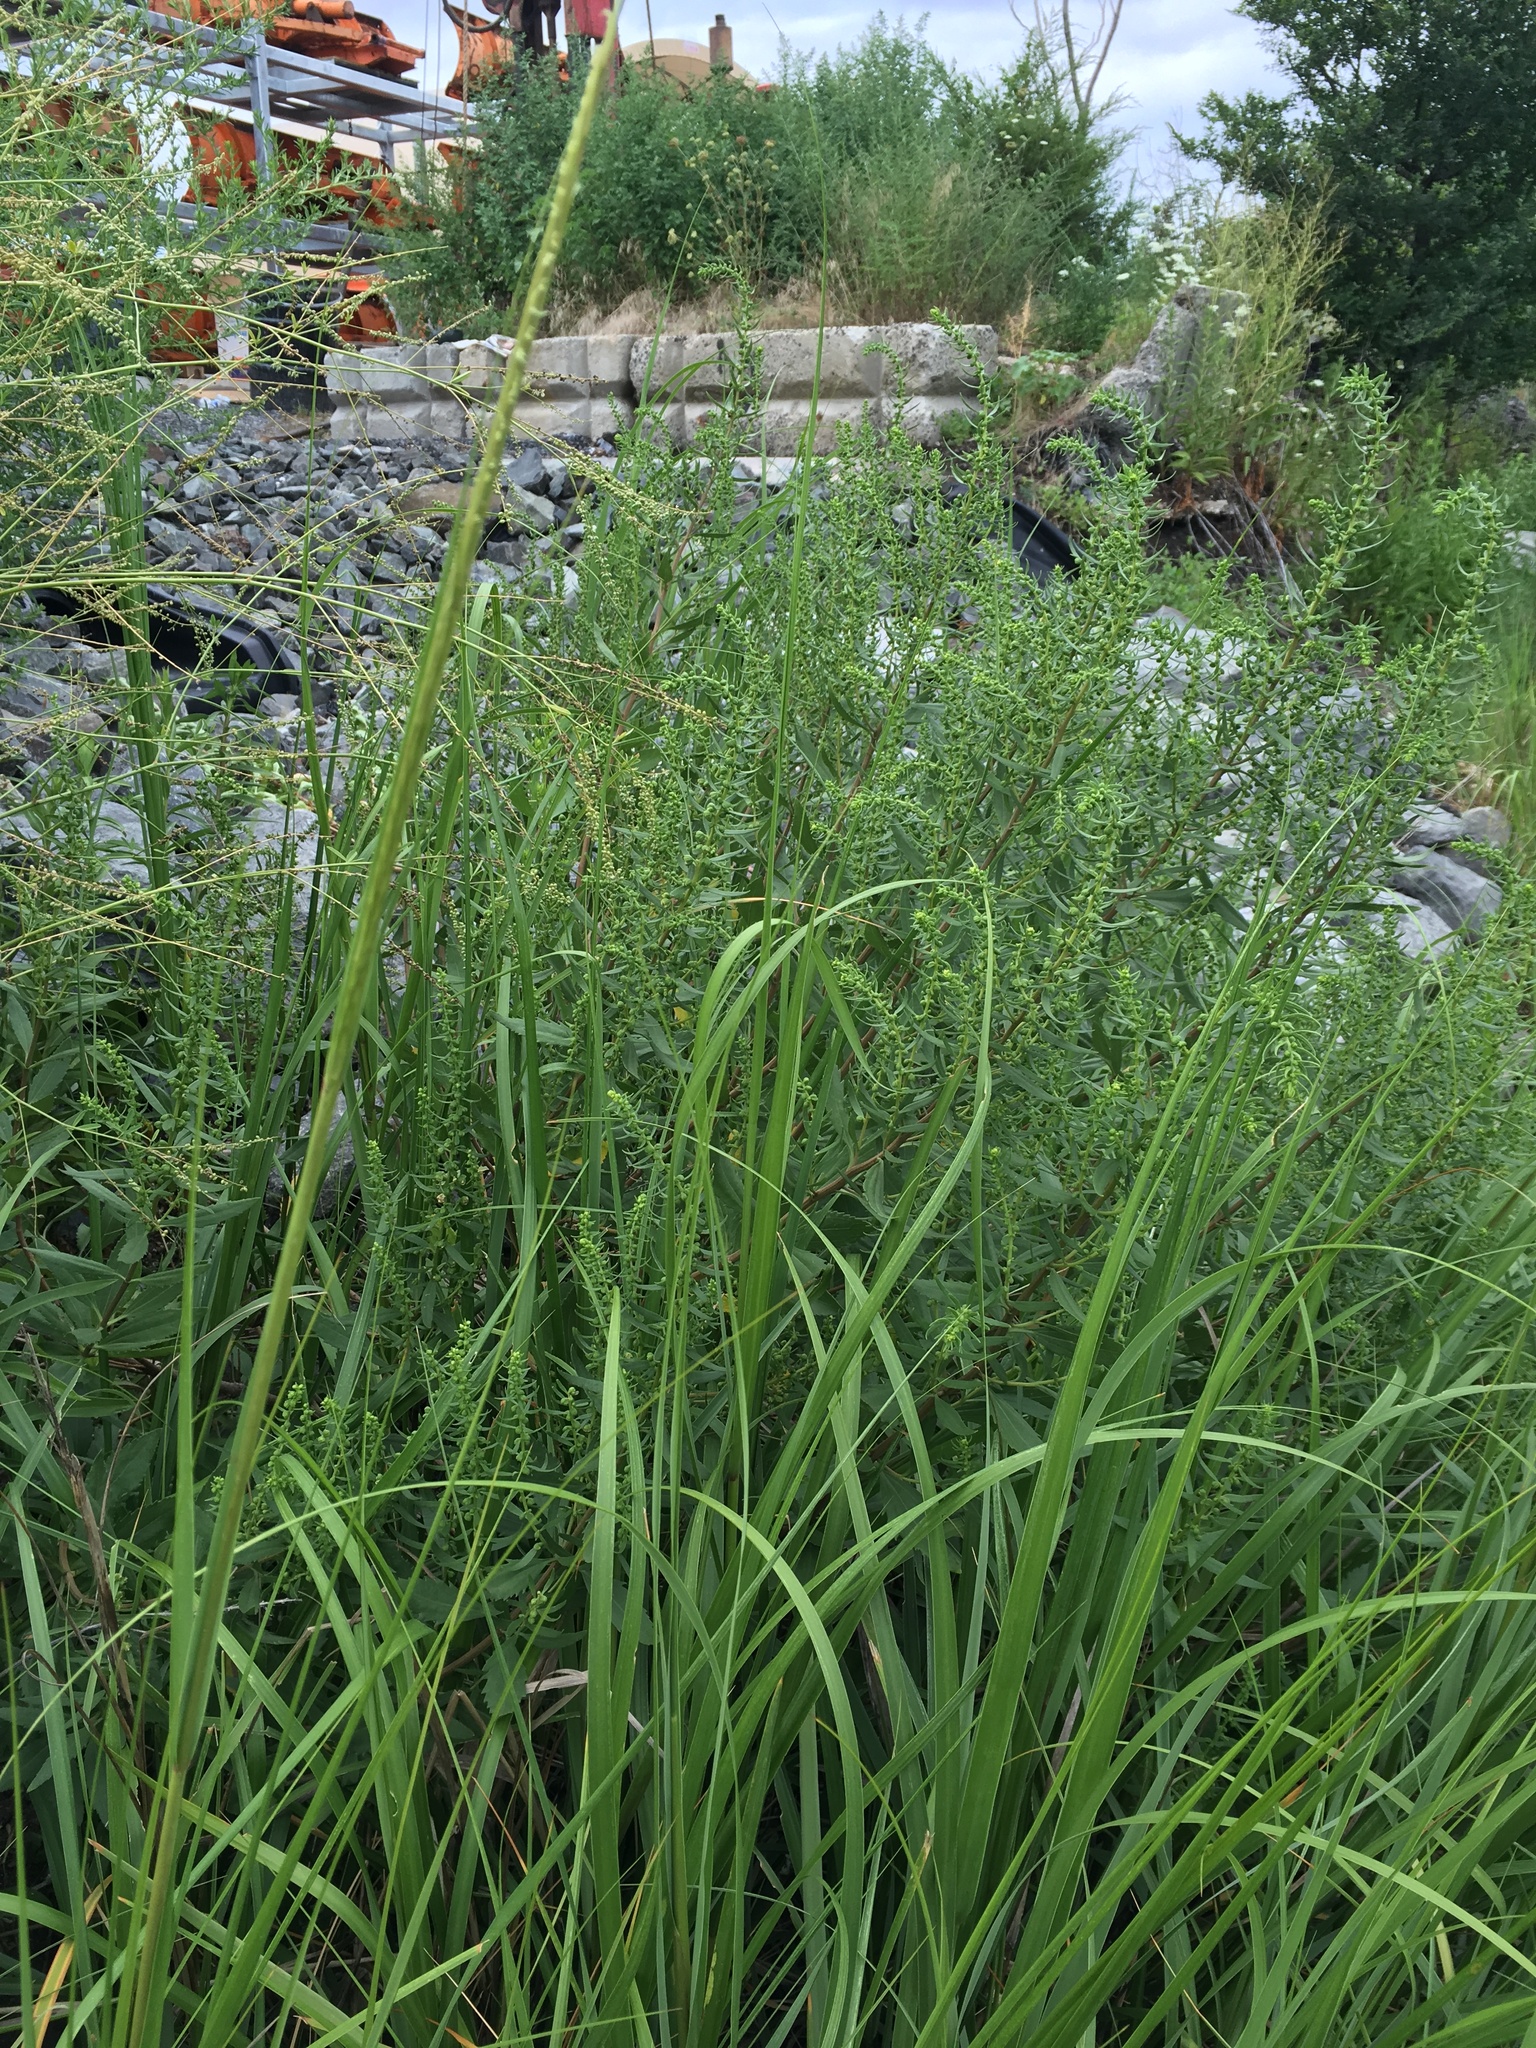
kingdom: Plantae
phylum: Tracheophyta
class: Magnoliopsida
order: Asterales
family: Asteraceae
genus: Iva
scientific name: Iva frutescens
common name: Big-leaved marsh-elder
